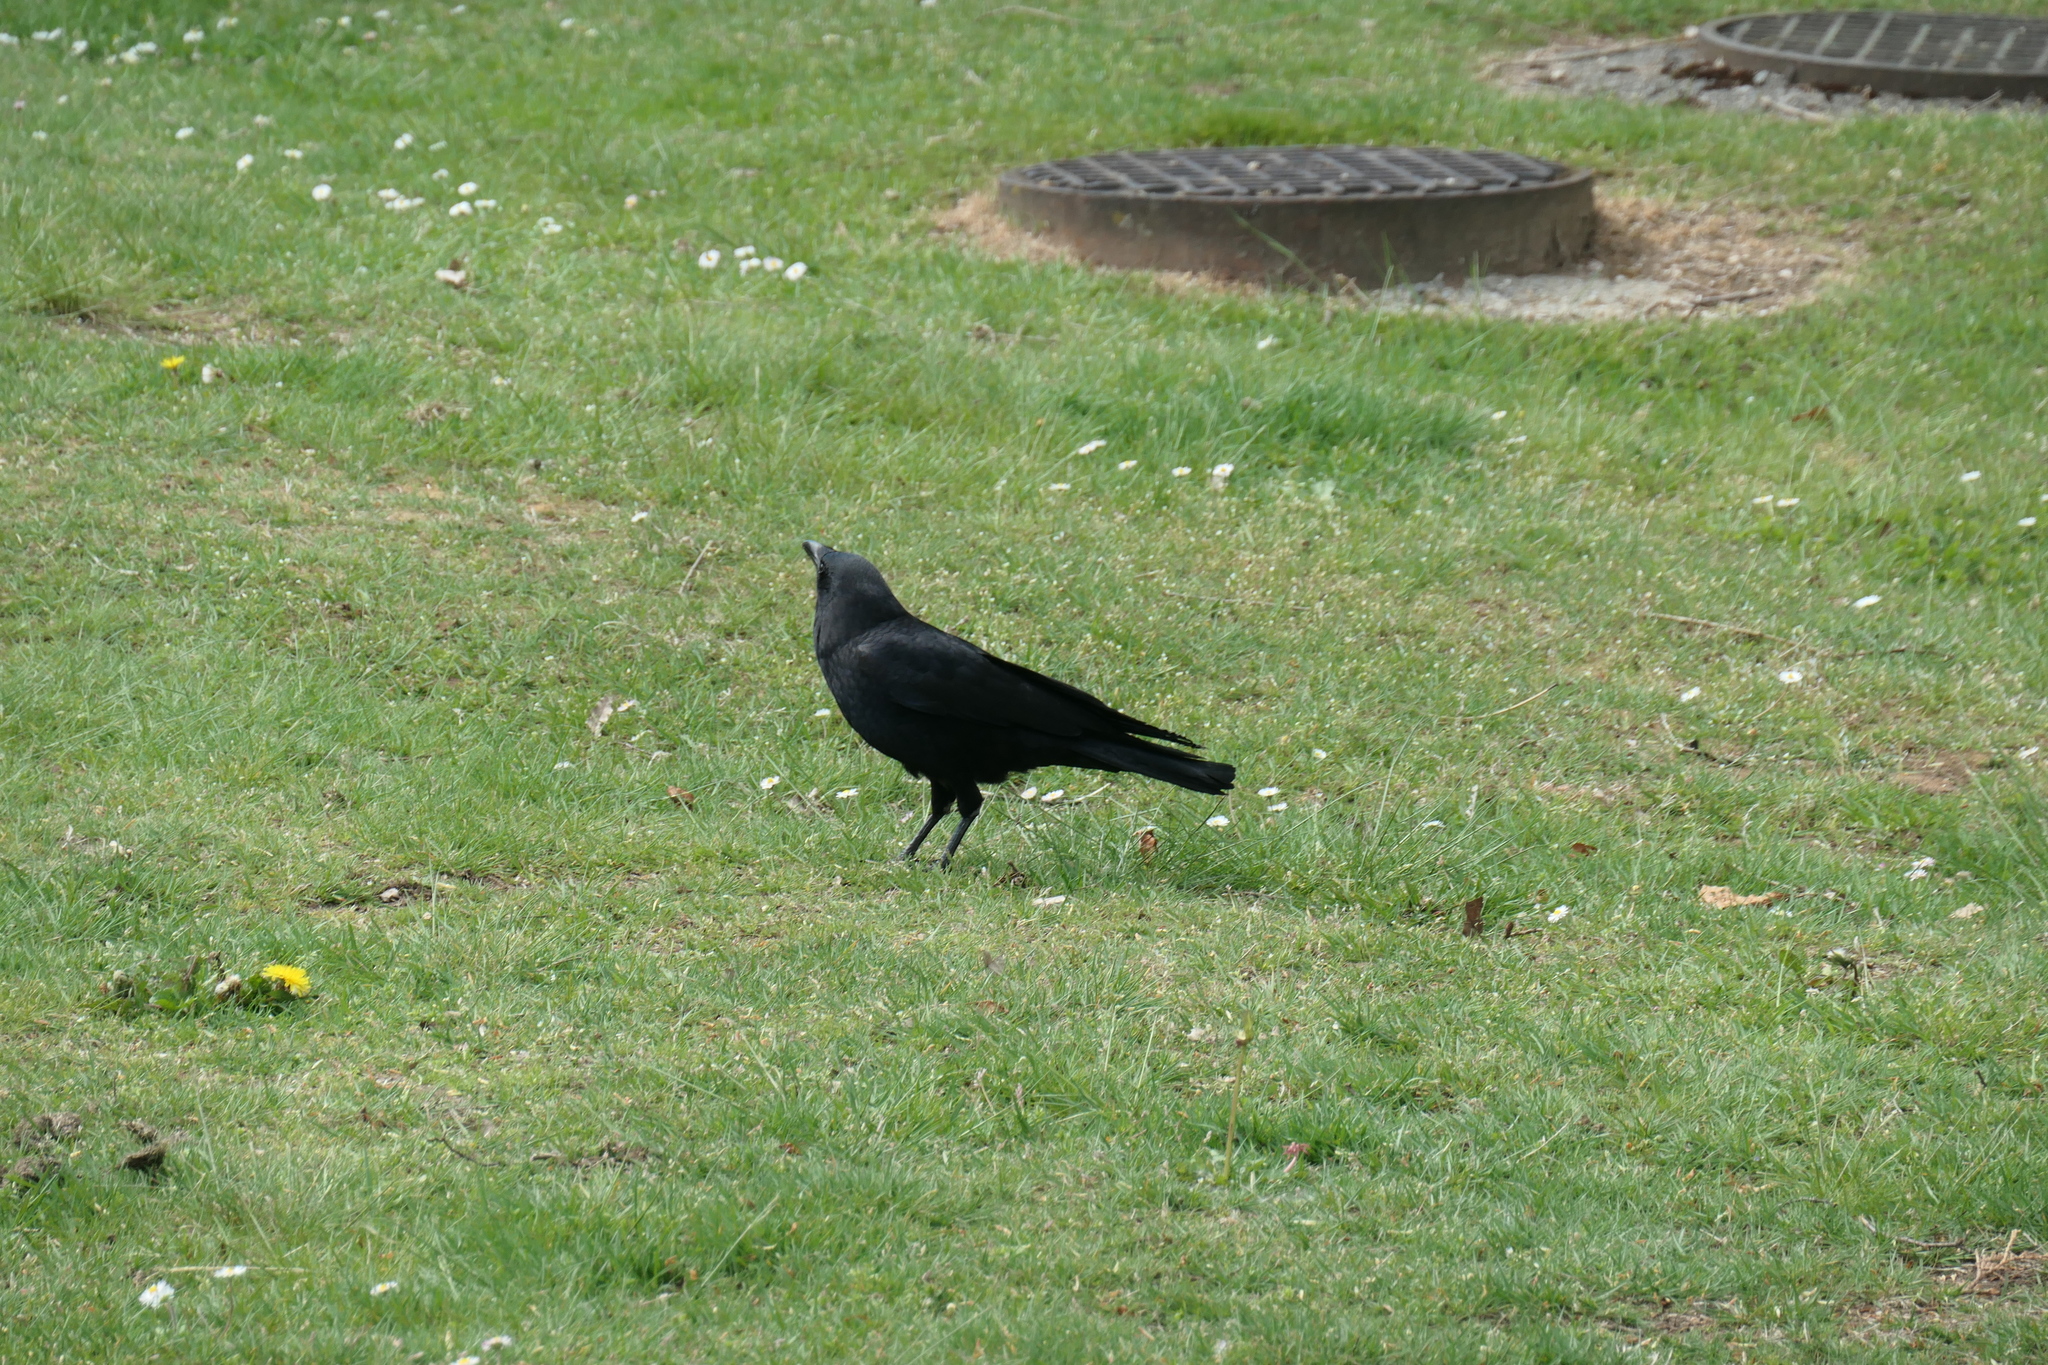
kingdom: Animalia
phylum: Chordata
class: Aves
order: Passeriformes
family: Corvidae
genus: Corvus
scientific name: Corvus brachyrhynchos
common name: American crow
